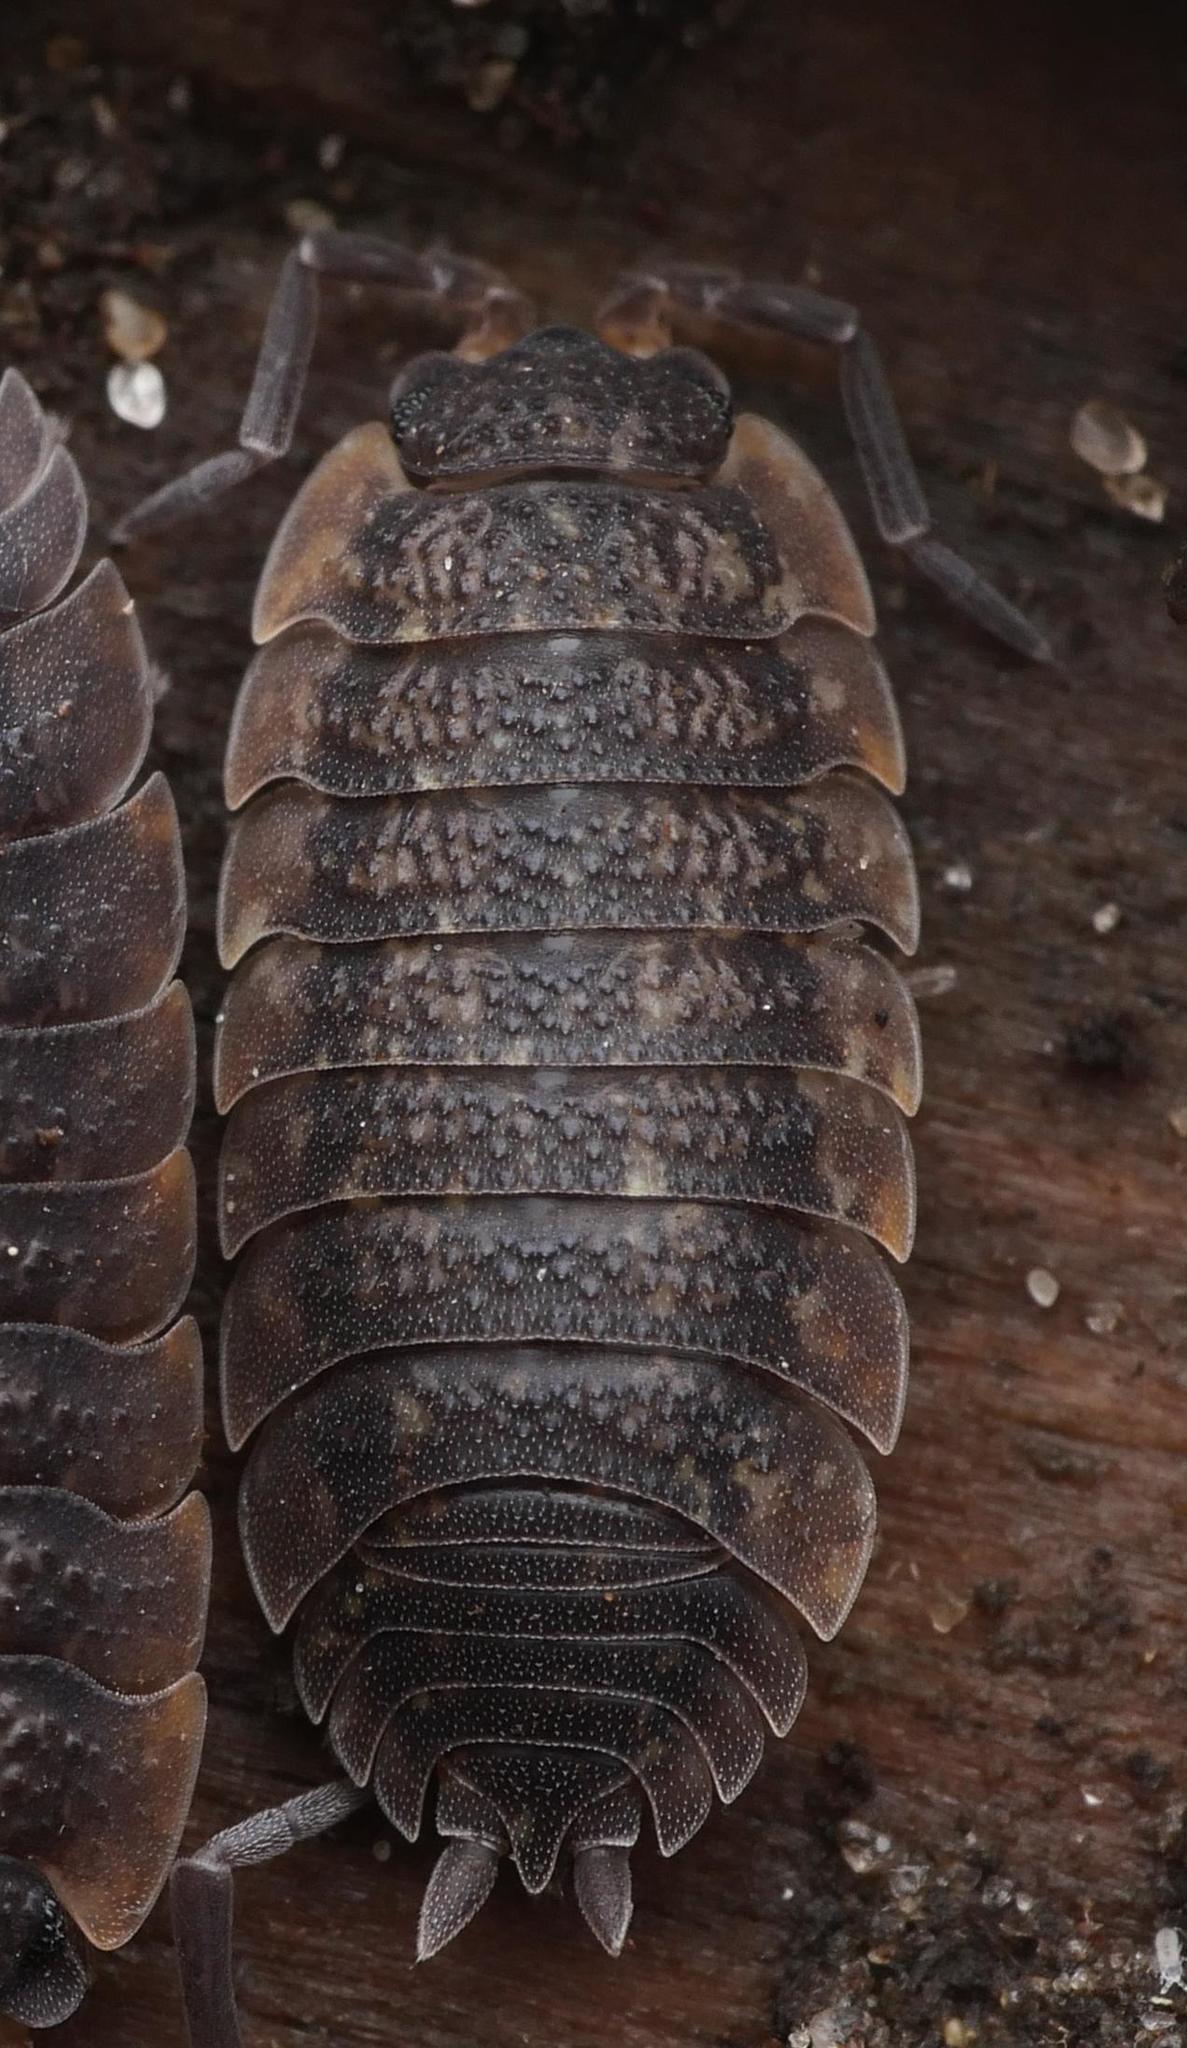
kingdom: Animalia
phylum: Arthropoda
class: Malacostraca
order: Isopoda
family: Porcellionidae
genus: Porcellio
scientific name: Porcellio scaber
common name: Common rough woodlouse
